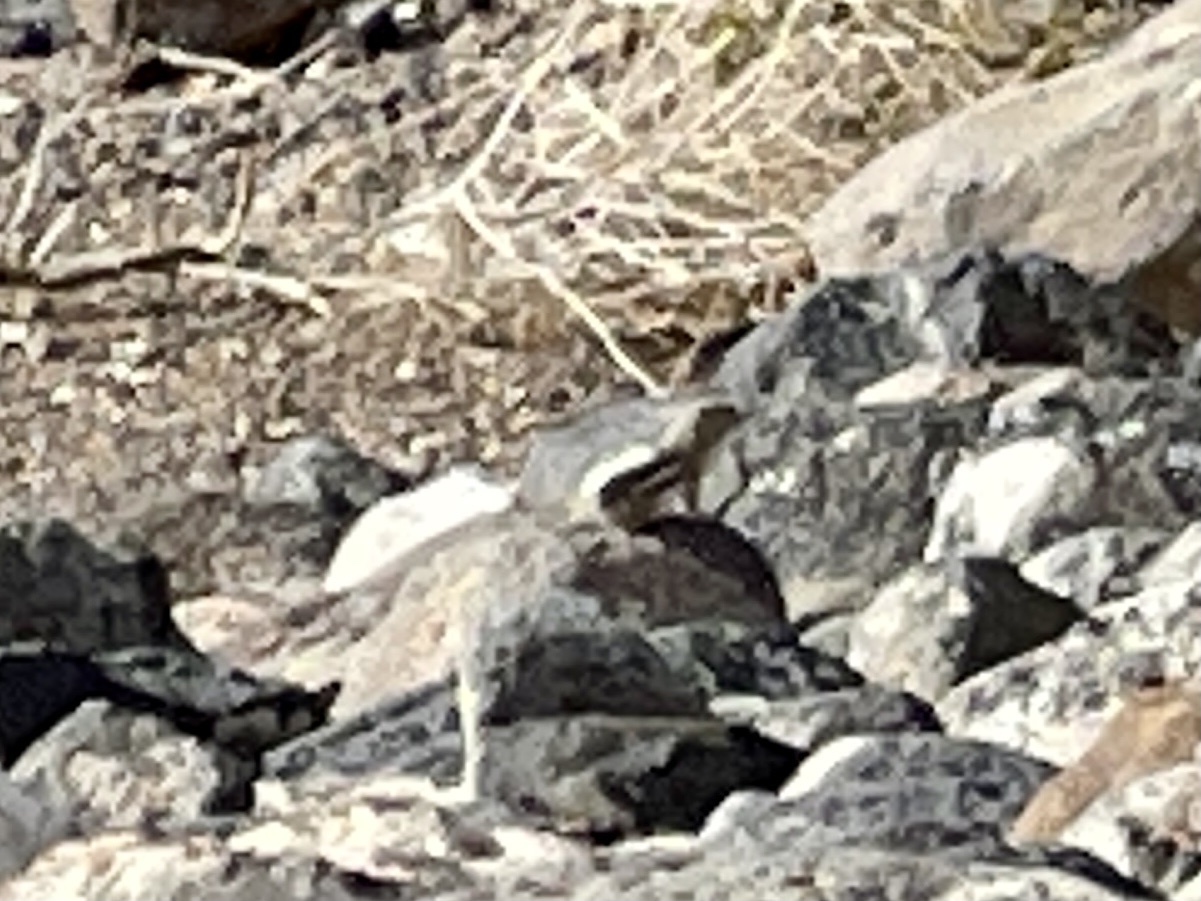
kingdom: Animalia
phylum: Chordata
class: Mammalia
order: Rodentia
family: Sciuridae
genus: Ammospermophilus
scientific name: Ammospermophilus leucurus
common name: White-tailed antelope squirrel
